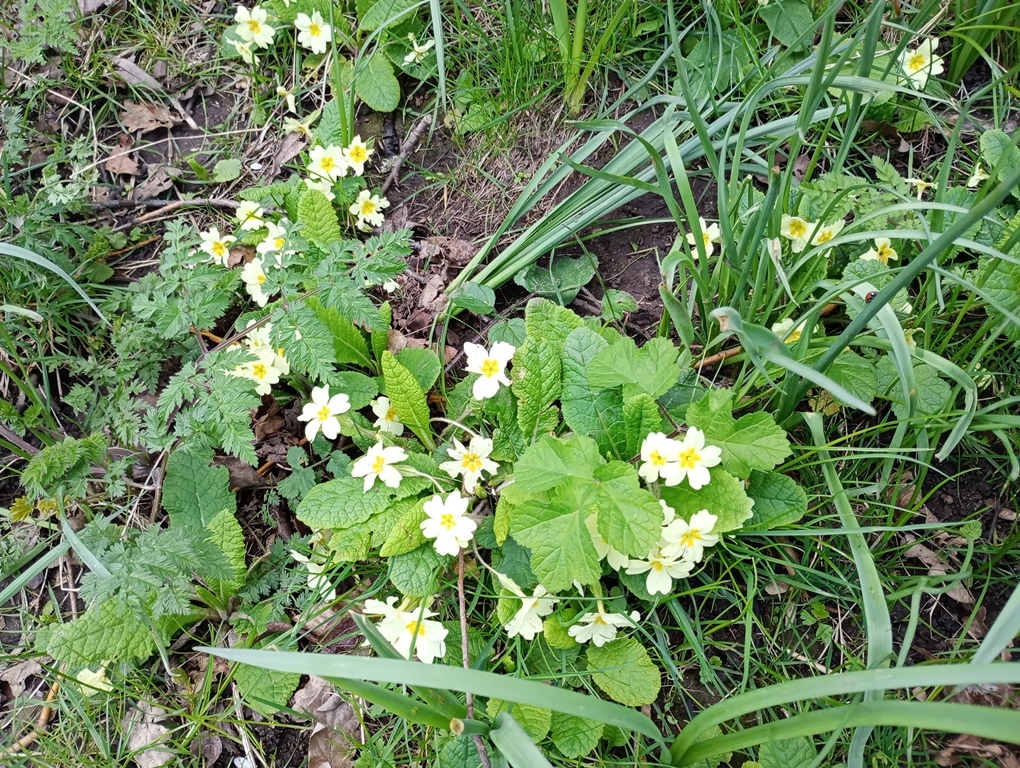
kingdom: Plantae
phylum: Tracheophyta
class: Magnoliopsida
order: Ericales
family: Primulaceae
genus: Primula
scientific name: Primula vulgaris
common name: Primrose
